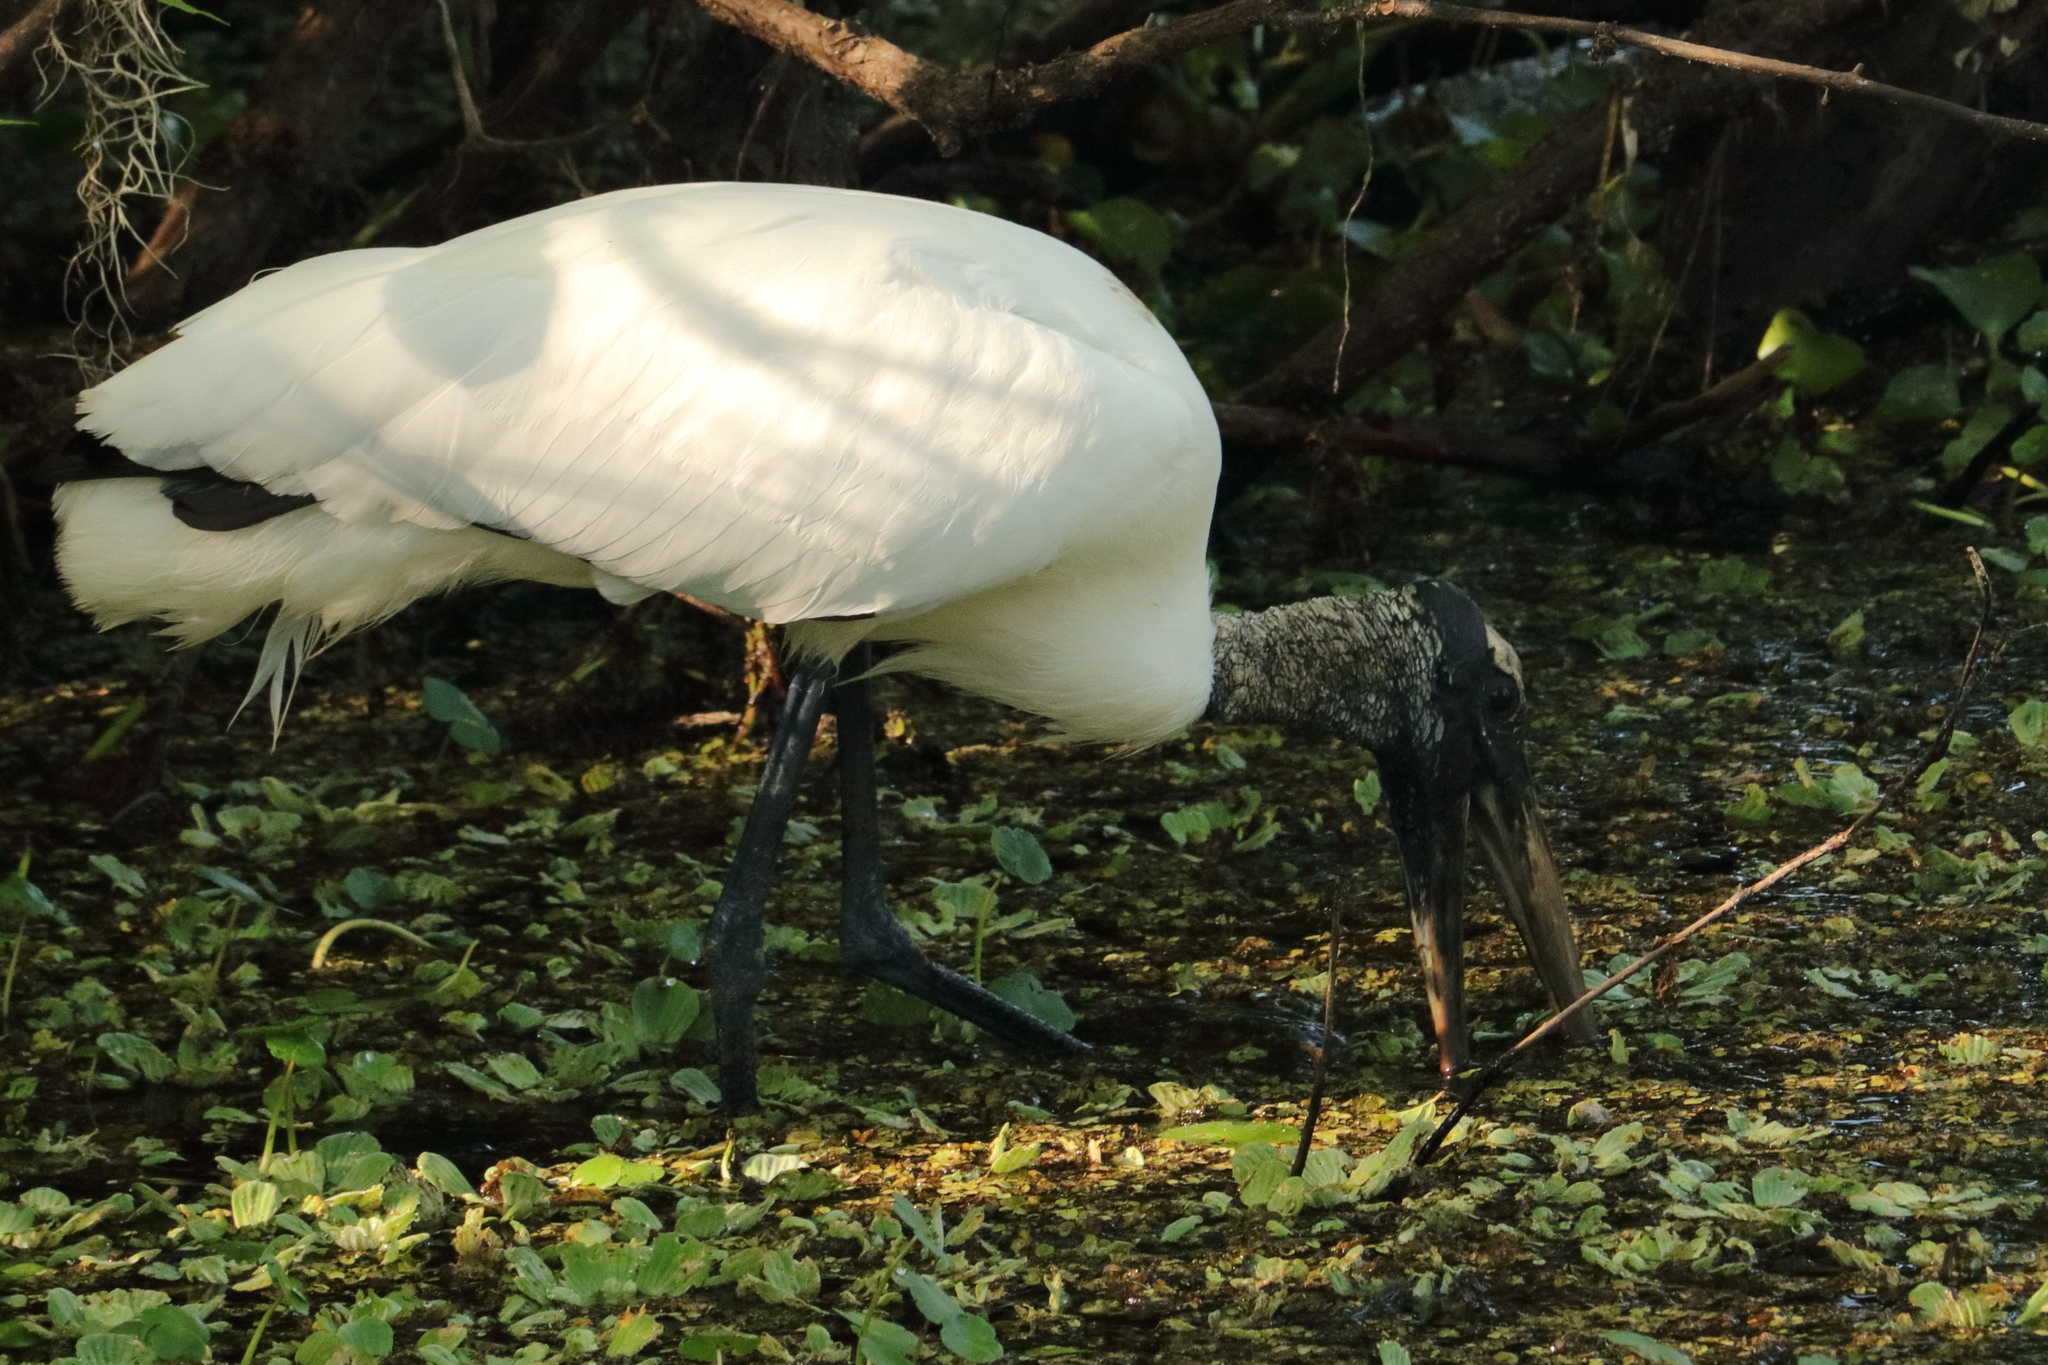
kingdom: Animalia
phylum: Chordata
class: Aves
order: Ciconiiformes
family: Ciconiidae
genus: Mycteria
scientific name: Mycteria americana
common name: Wood stork
